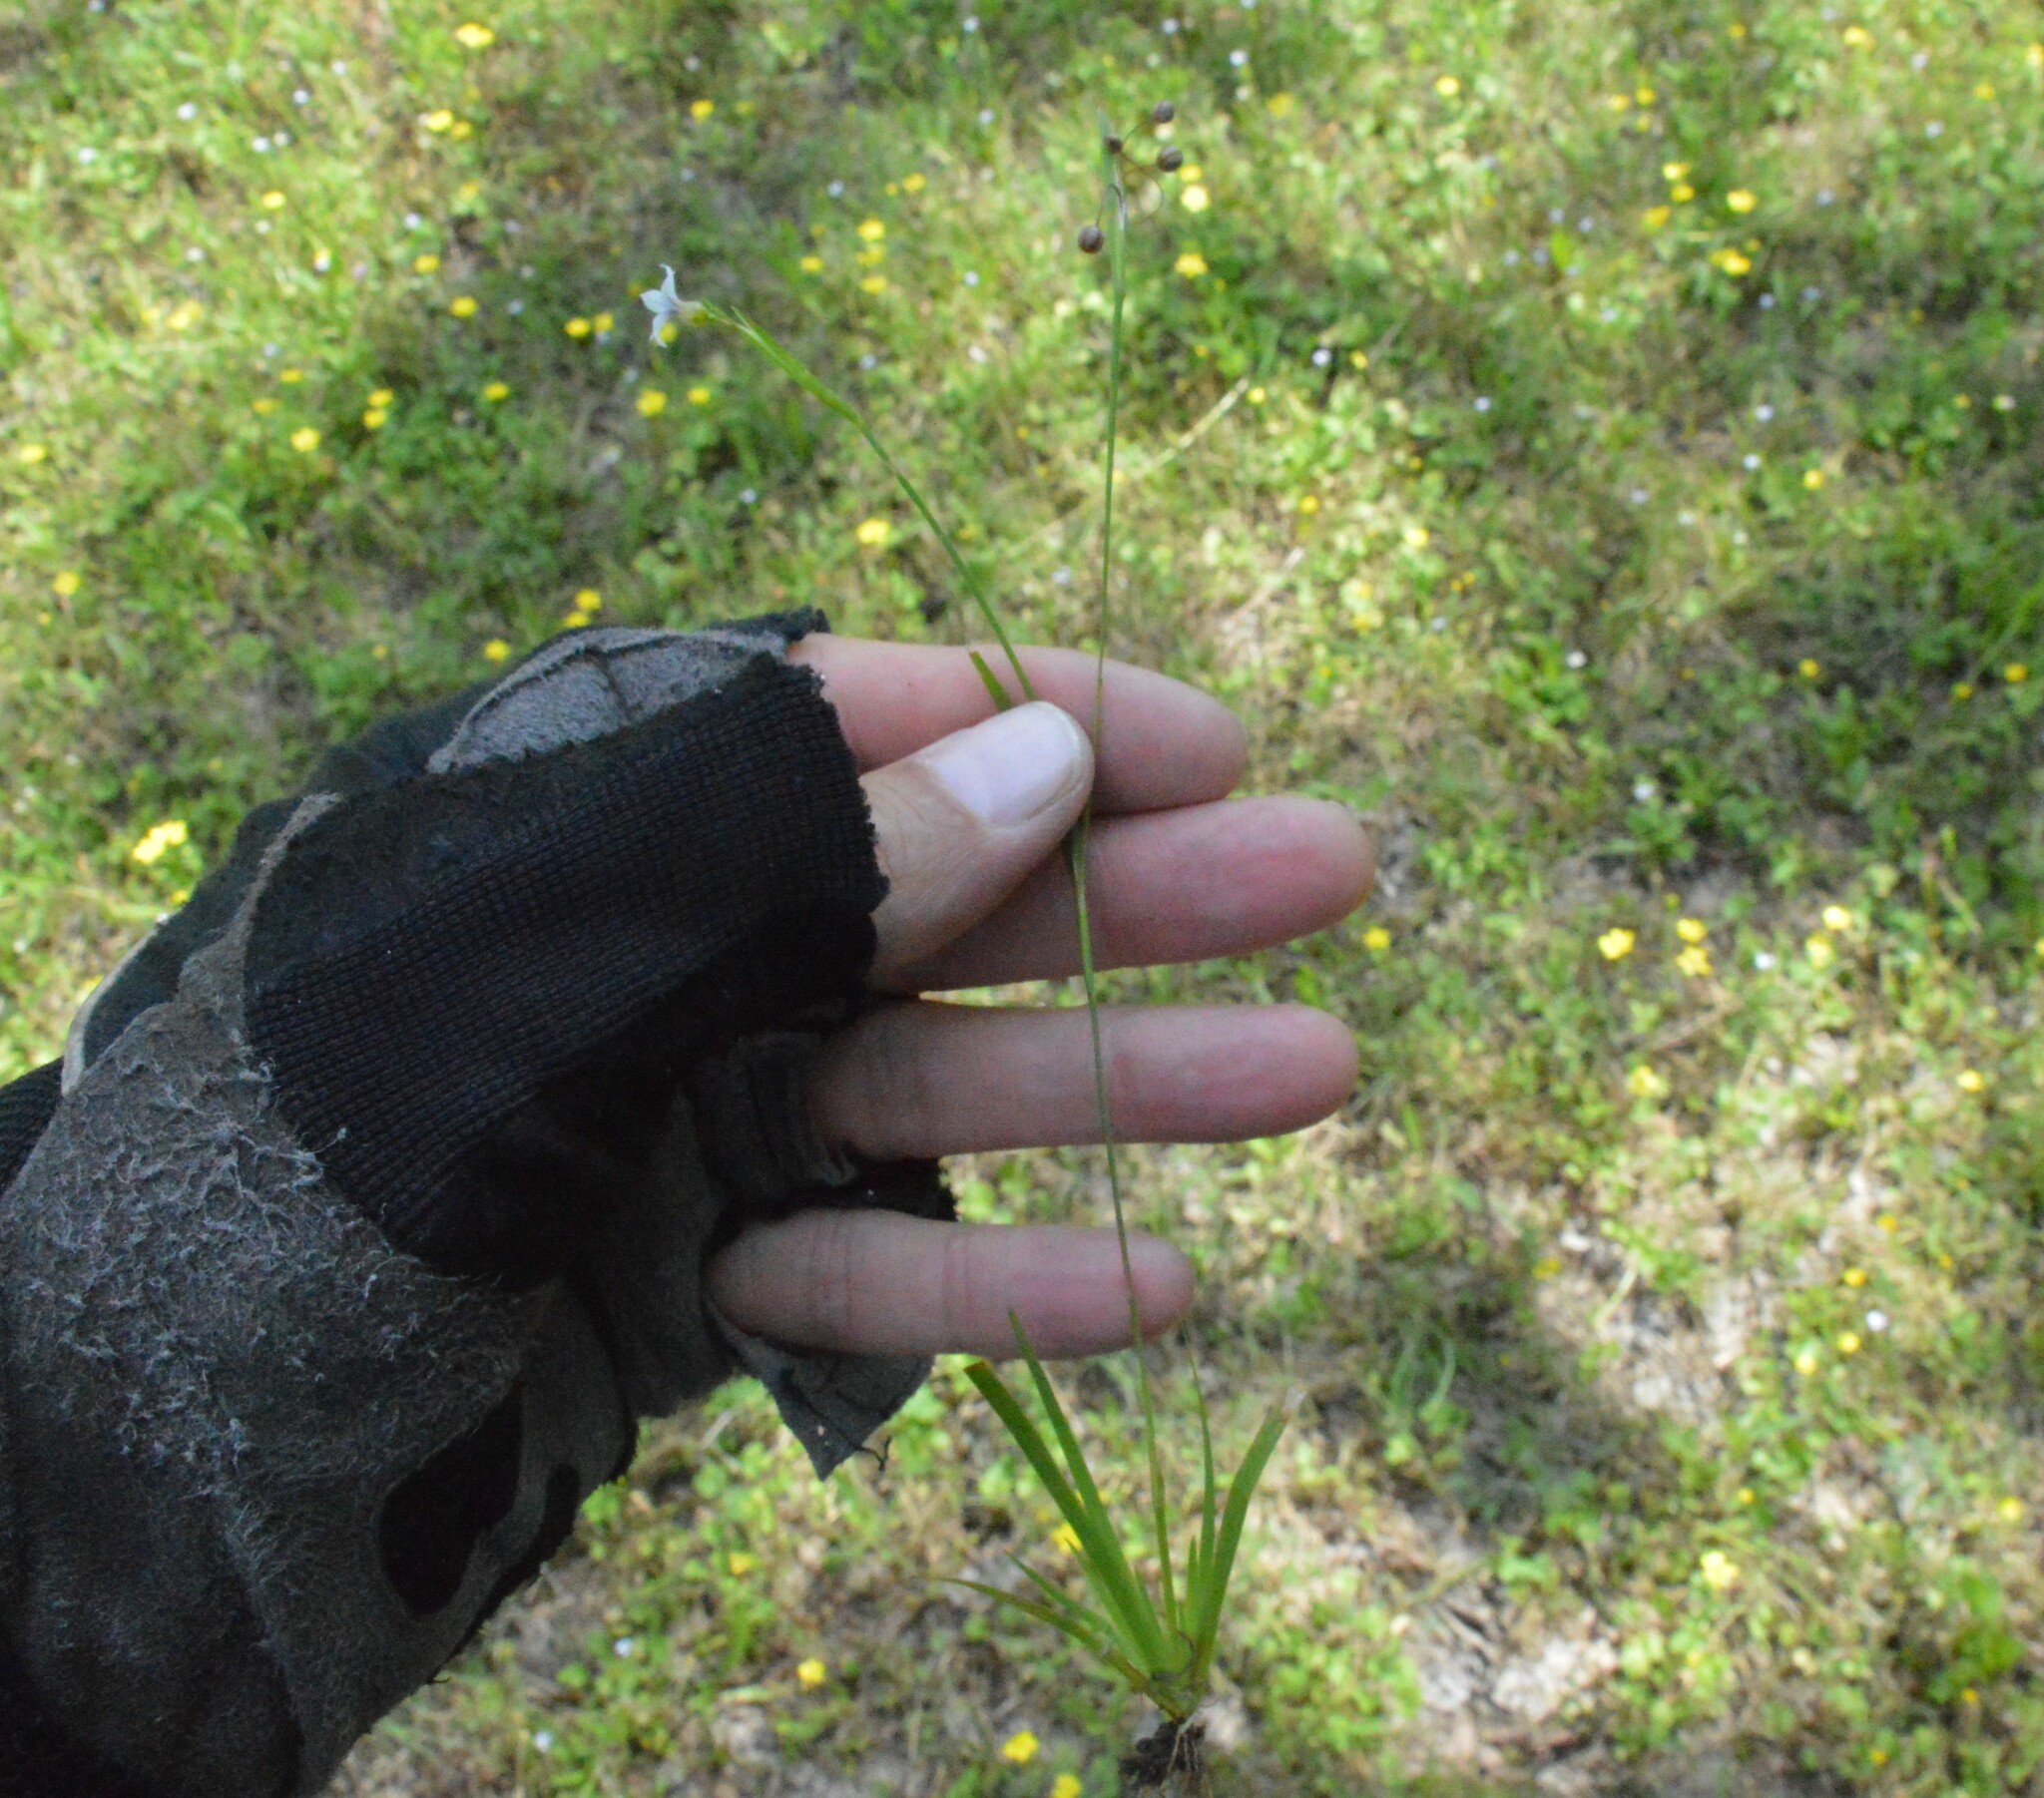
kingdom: Plantae
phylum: Tracheophyta
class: Liliopsida
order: Asparagales
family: Iridaceae
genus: Sisyrinchium
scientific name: Sisyrinchium micranthum
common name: Bermuda pigroot
